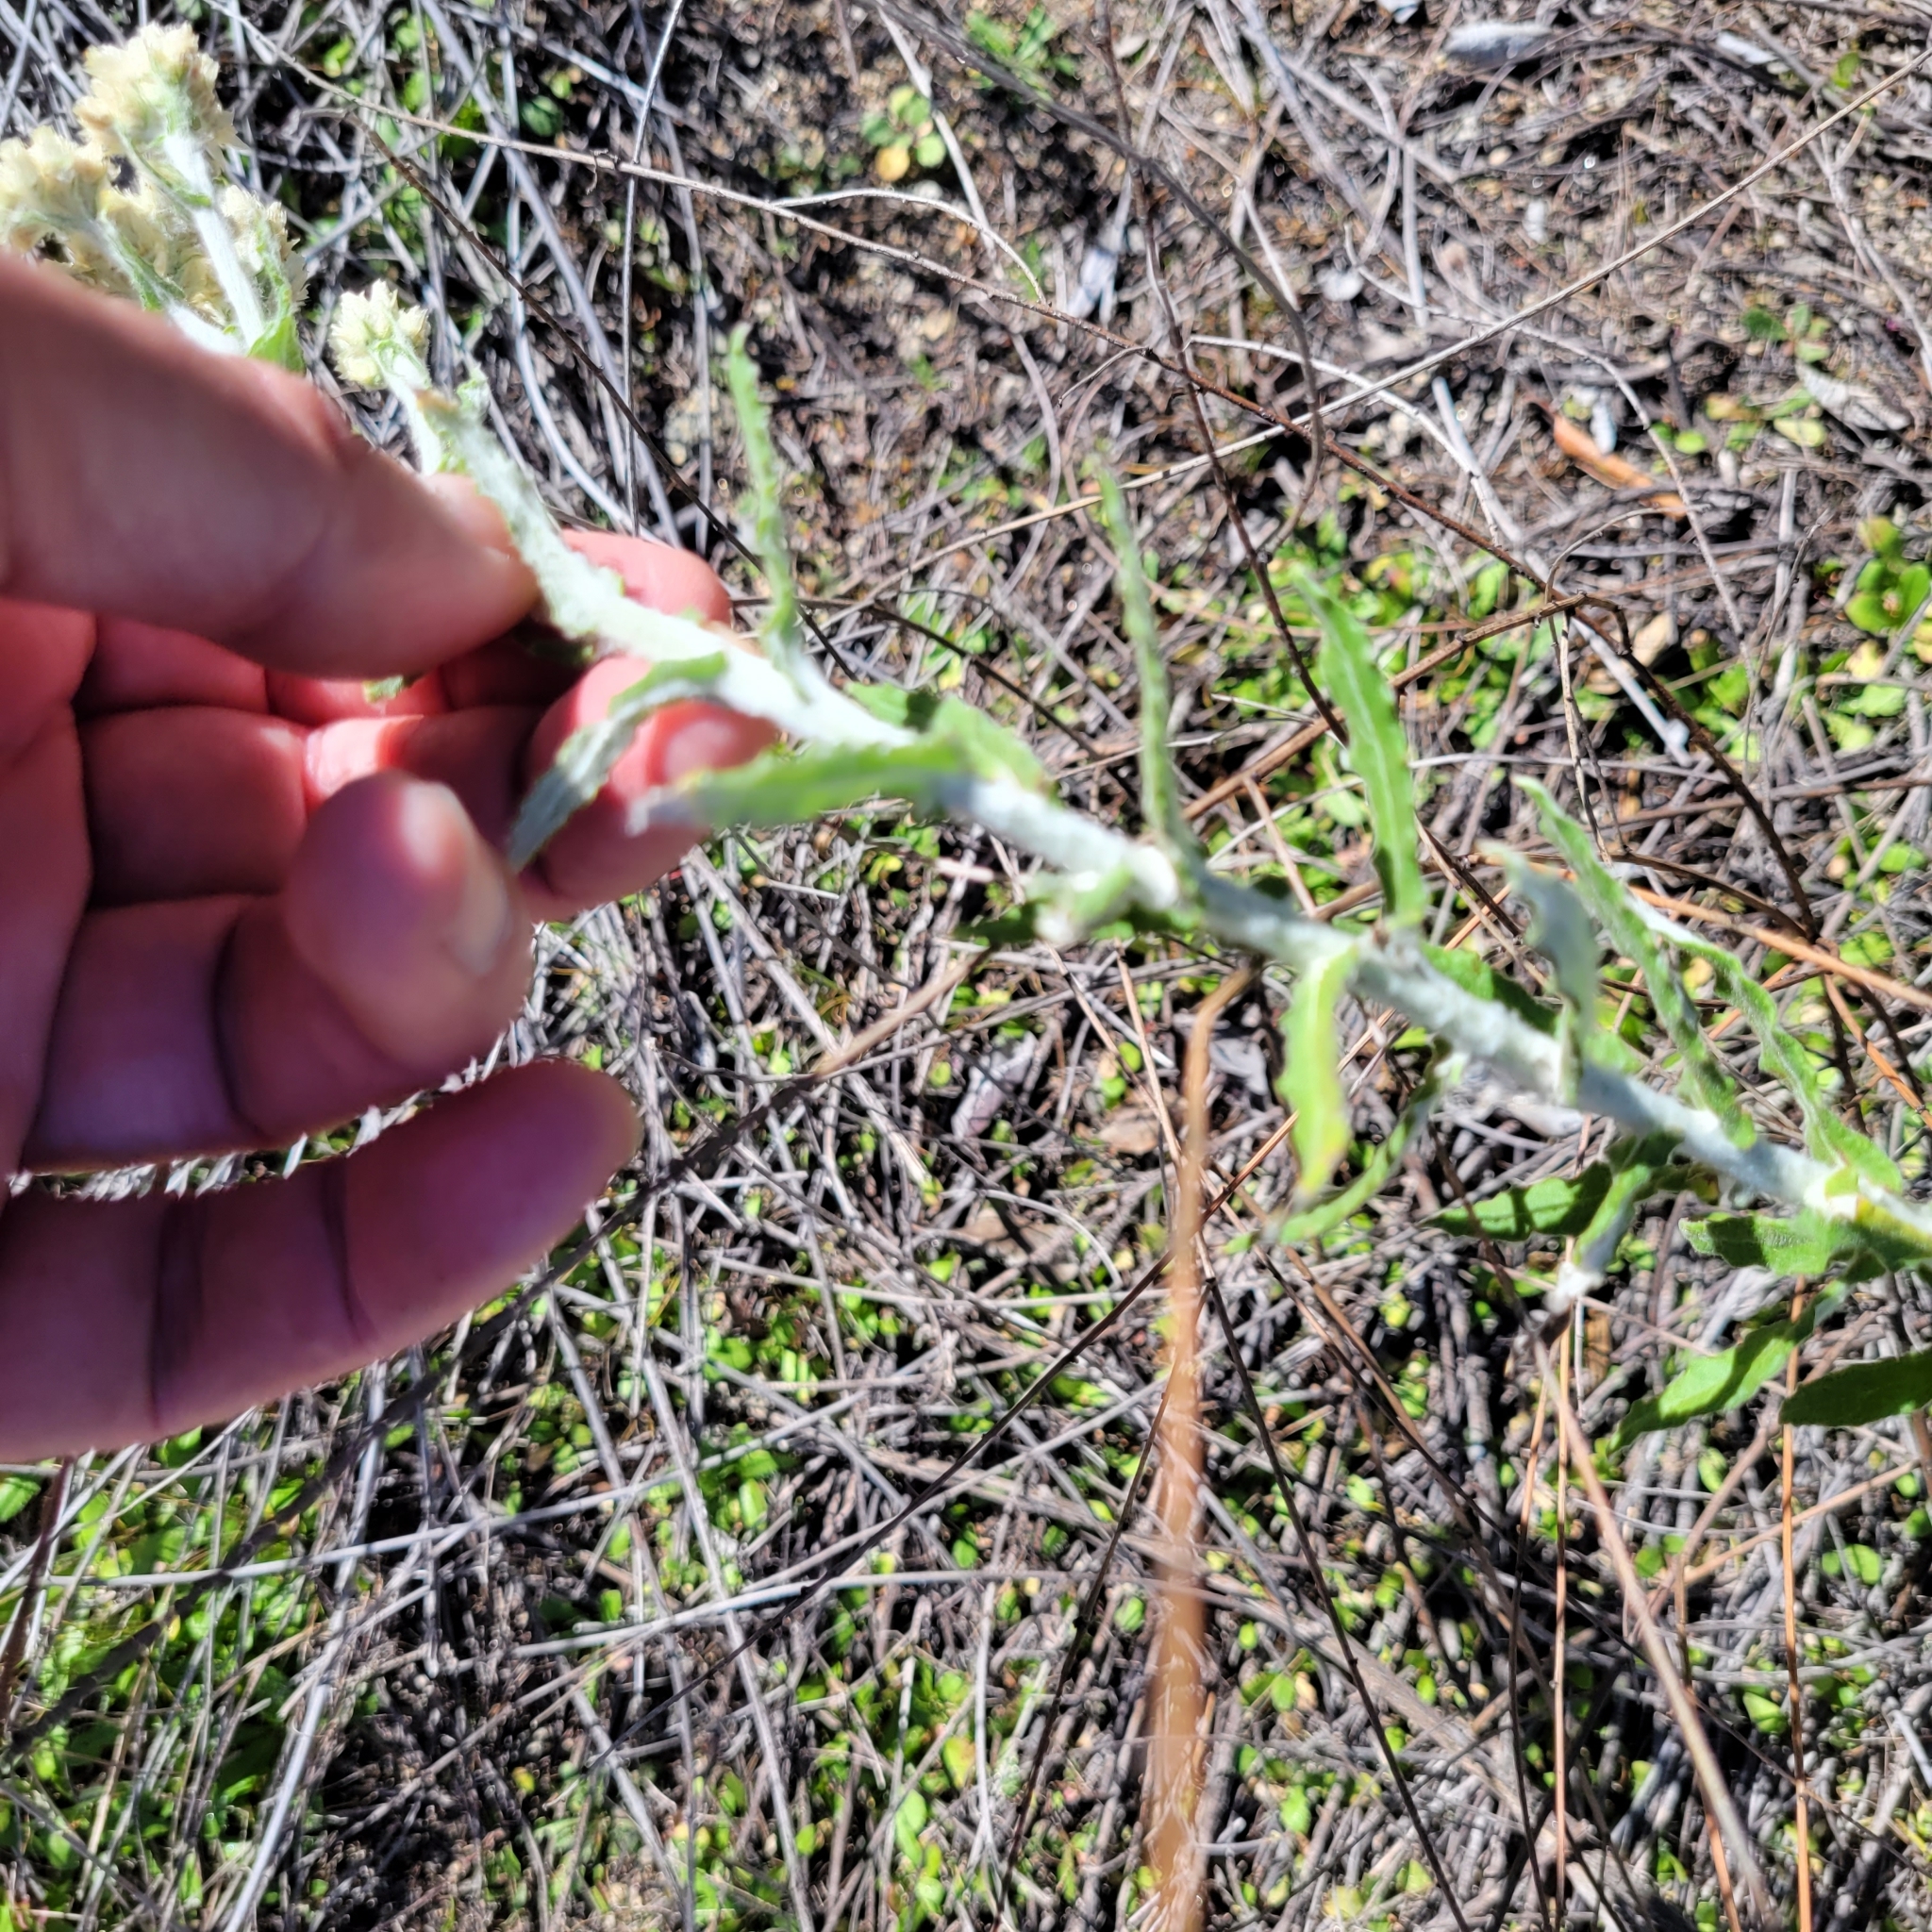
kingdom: Plantae
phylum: Tracheophyta
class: Magnoliopsida
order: Asterales
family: Asteraceae
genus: Pseudognaphalium
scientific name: Pseudognaphalium biolettii
